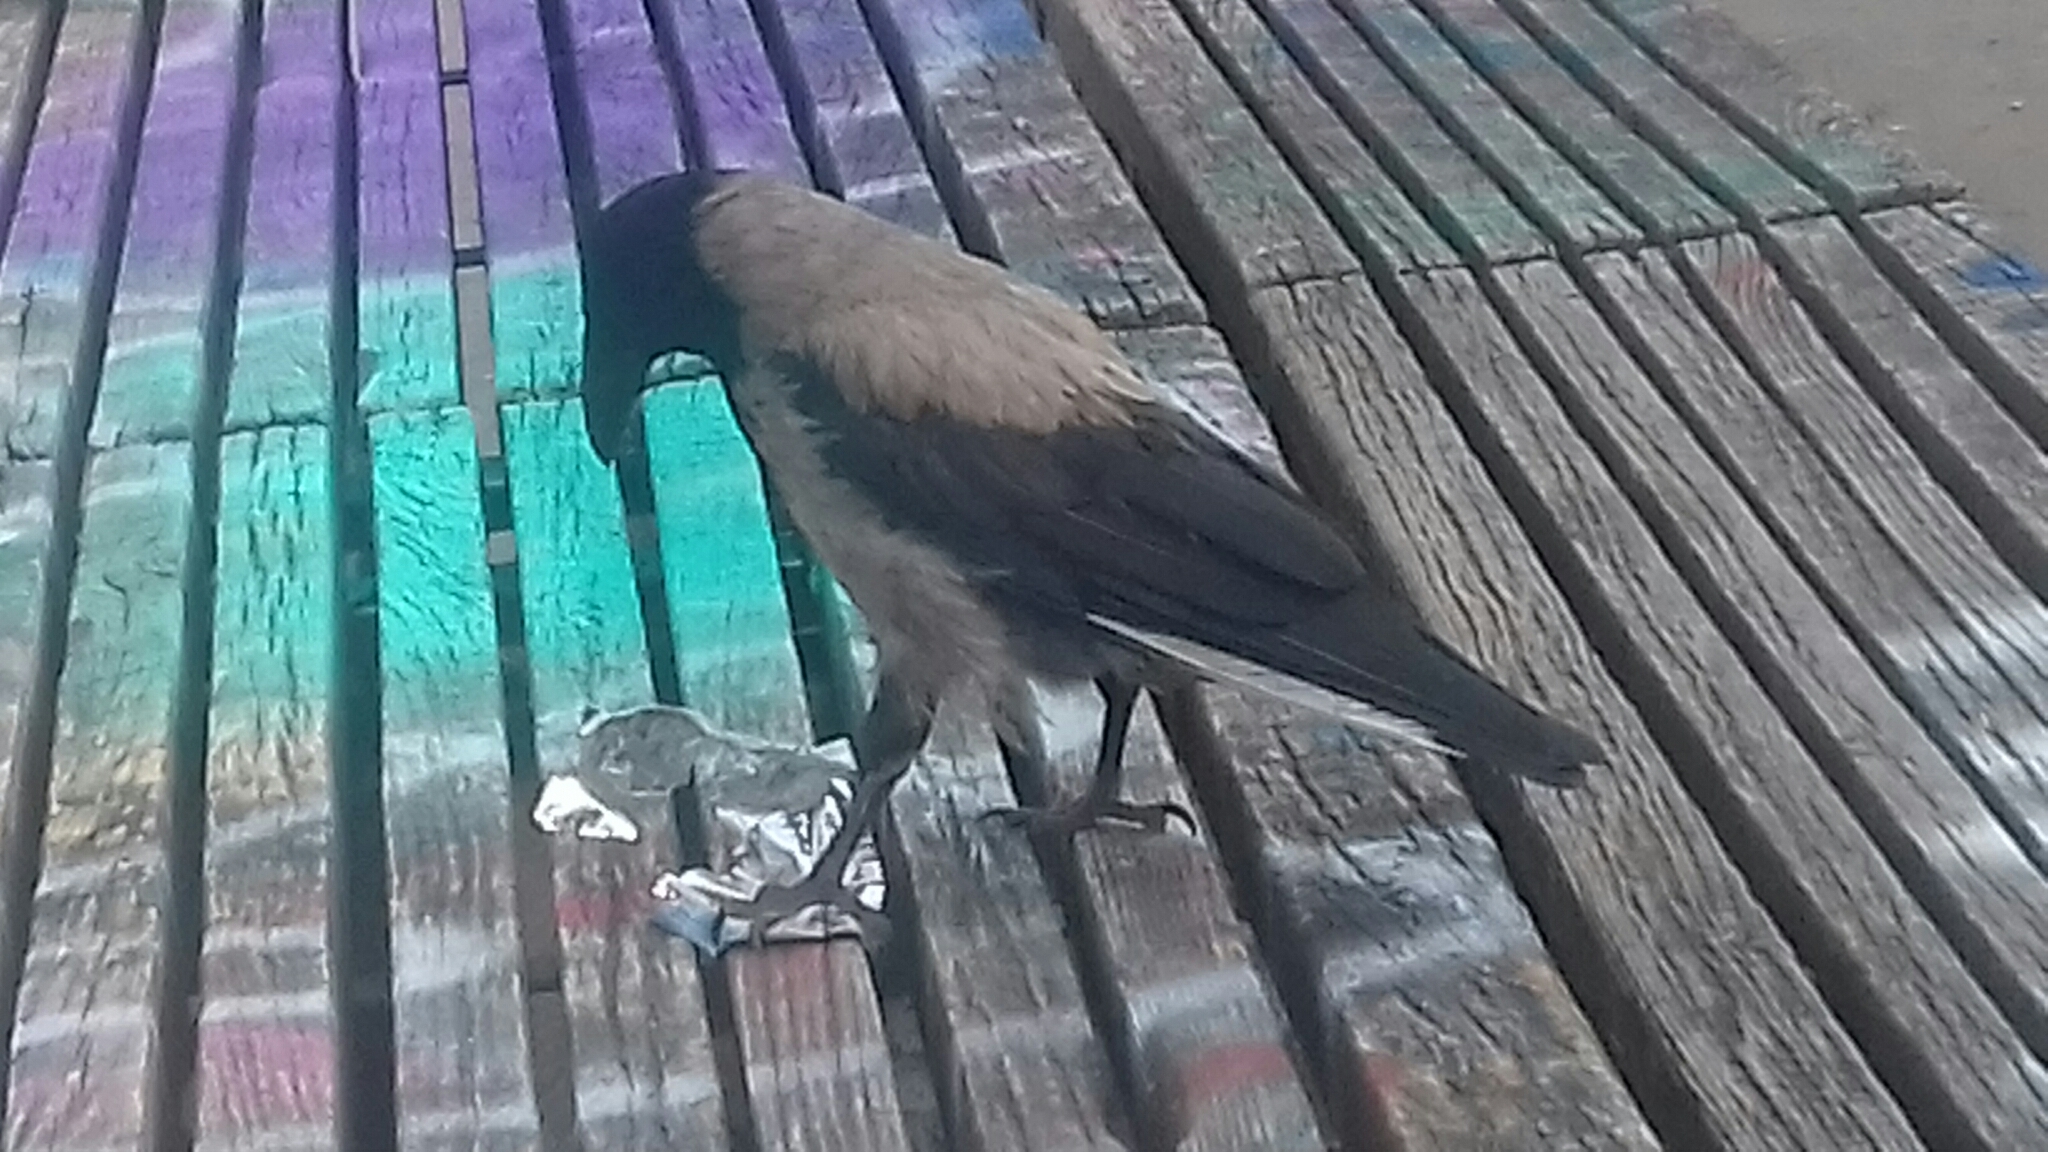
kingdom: Animalia
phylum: Chordata
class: Aves
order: Passeriformes
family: Corvidae
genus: Corvus
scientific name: Corvus cornix
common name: Hooded crow
